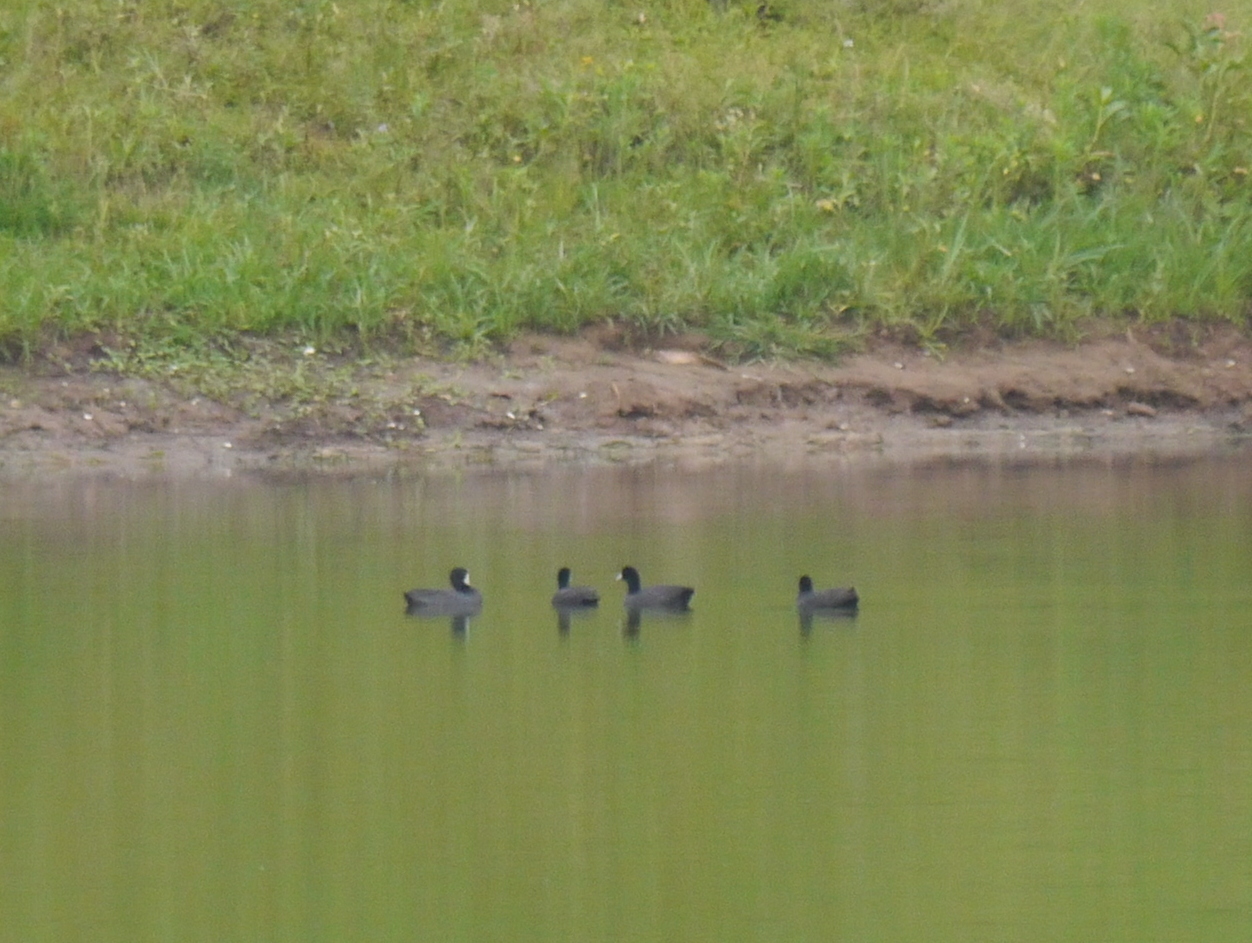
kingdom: Animalia
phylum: Chordata
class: Aves
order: Gruiformes
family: Rallidae
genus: Fulica
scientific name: Fulica cristata
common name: Red-knobbed coot
